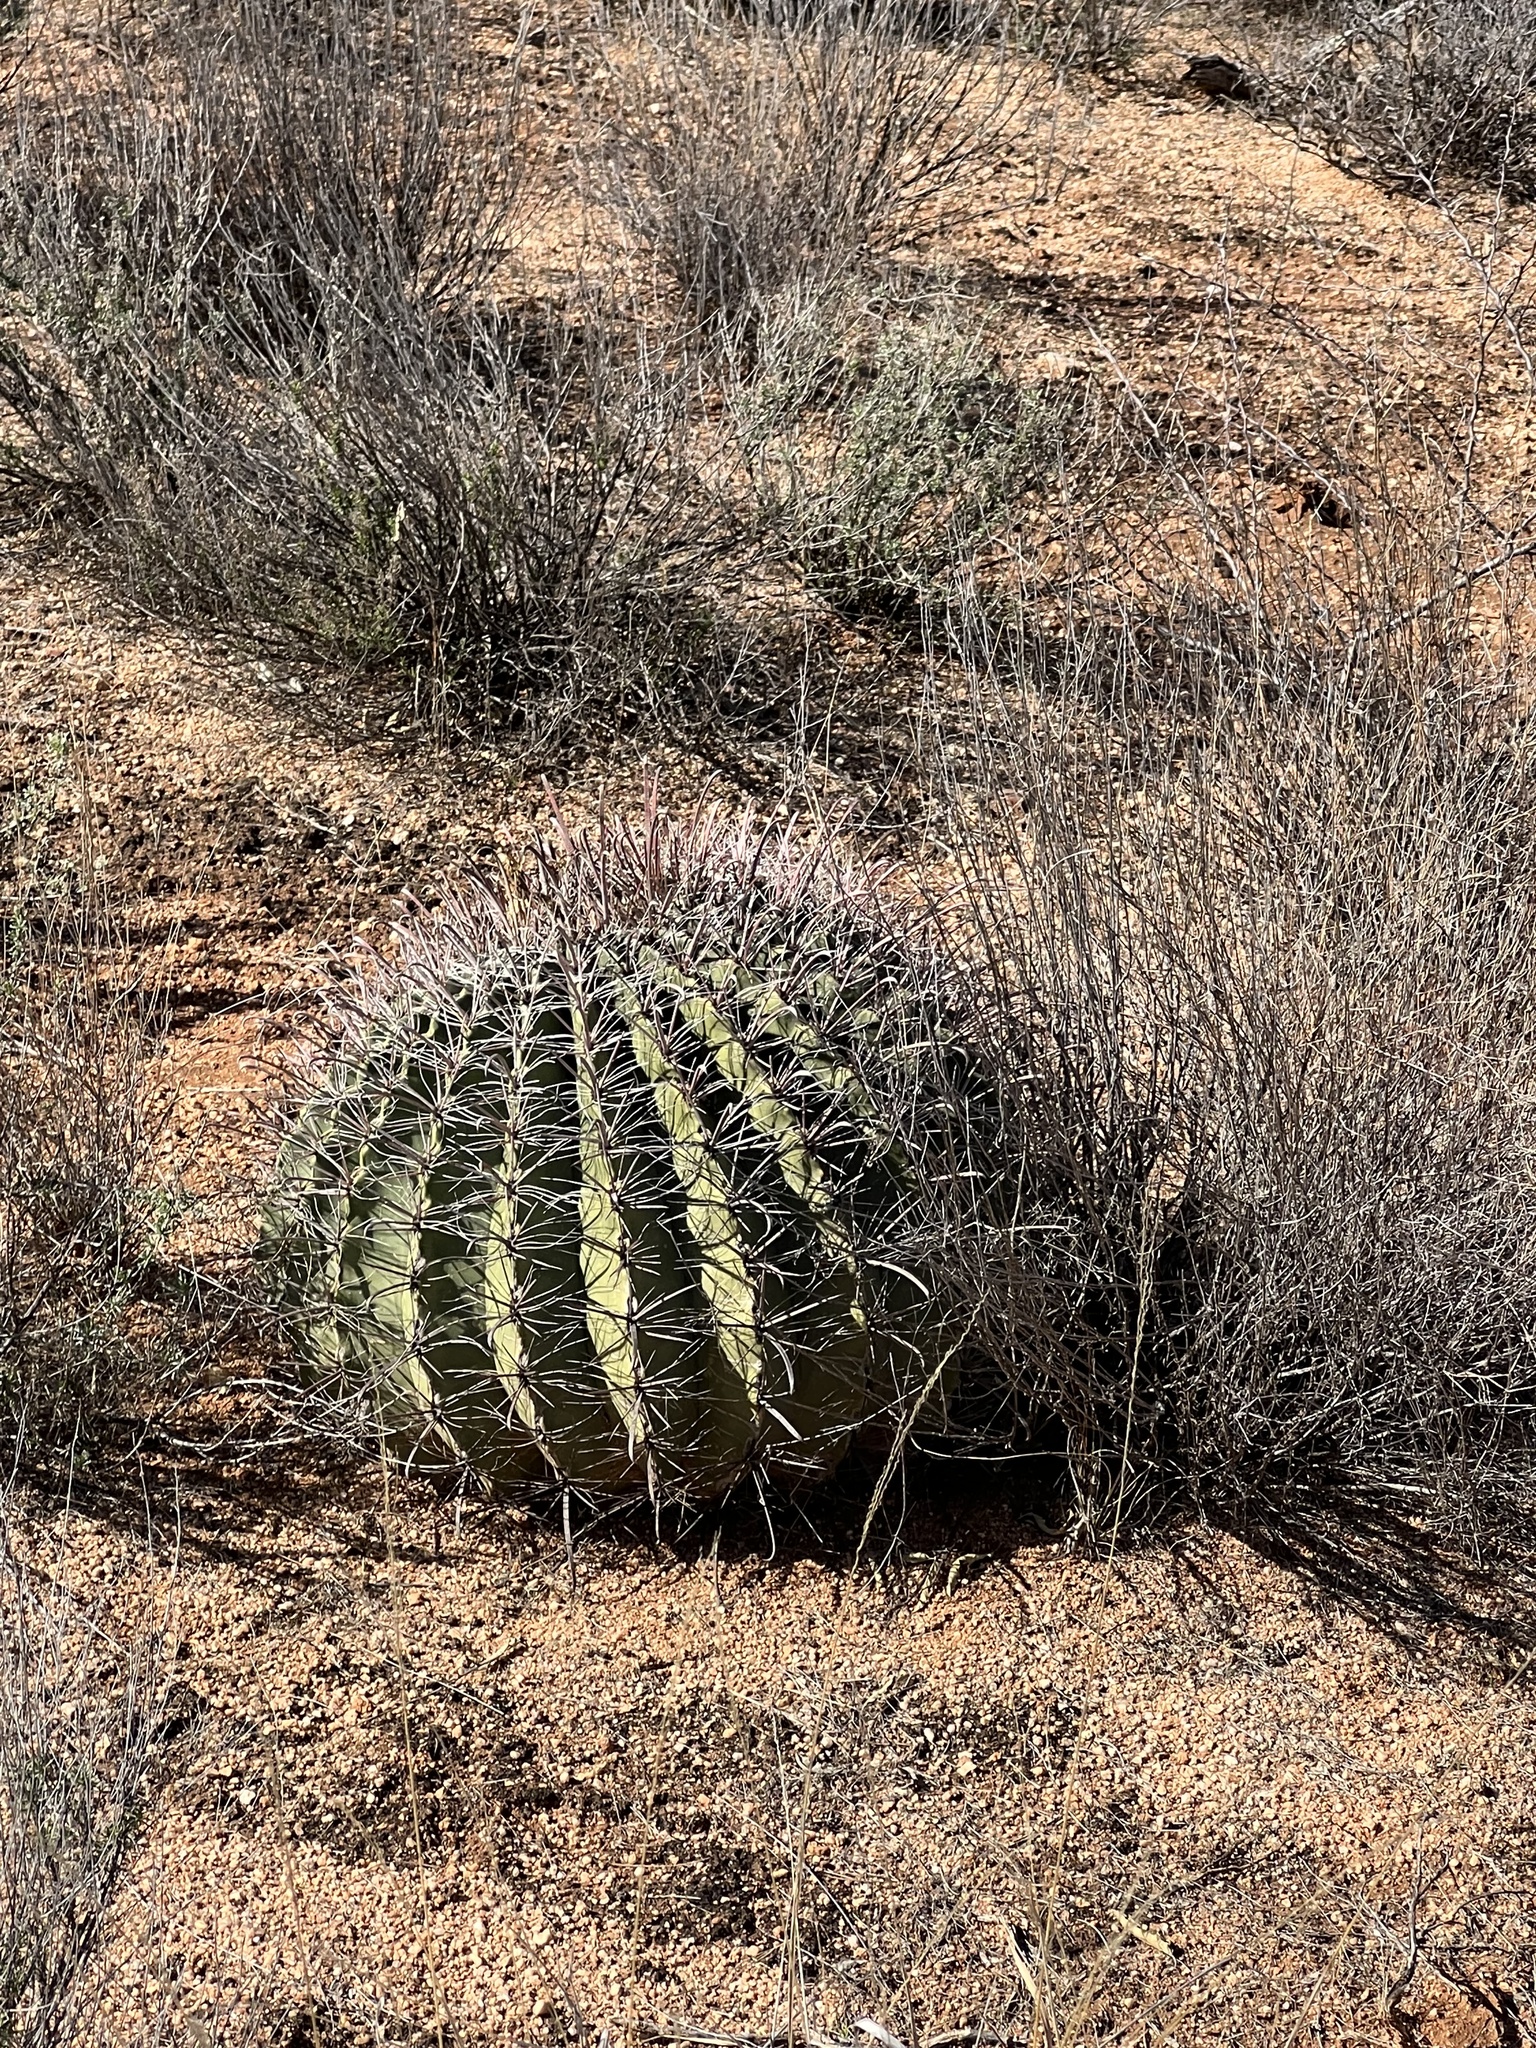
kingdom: Plantae
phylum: Tracheophyta
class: Magnoliopsida
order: Caryophyllales
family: Cactaceae
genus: Ferocactus
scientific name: Ferocactus wislizeni
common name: Candy barrel cactus
